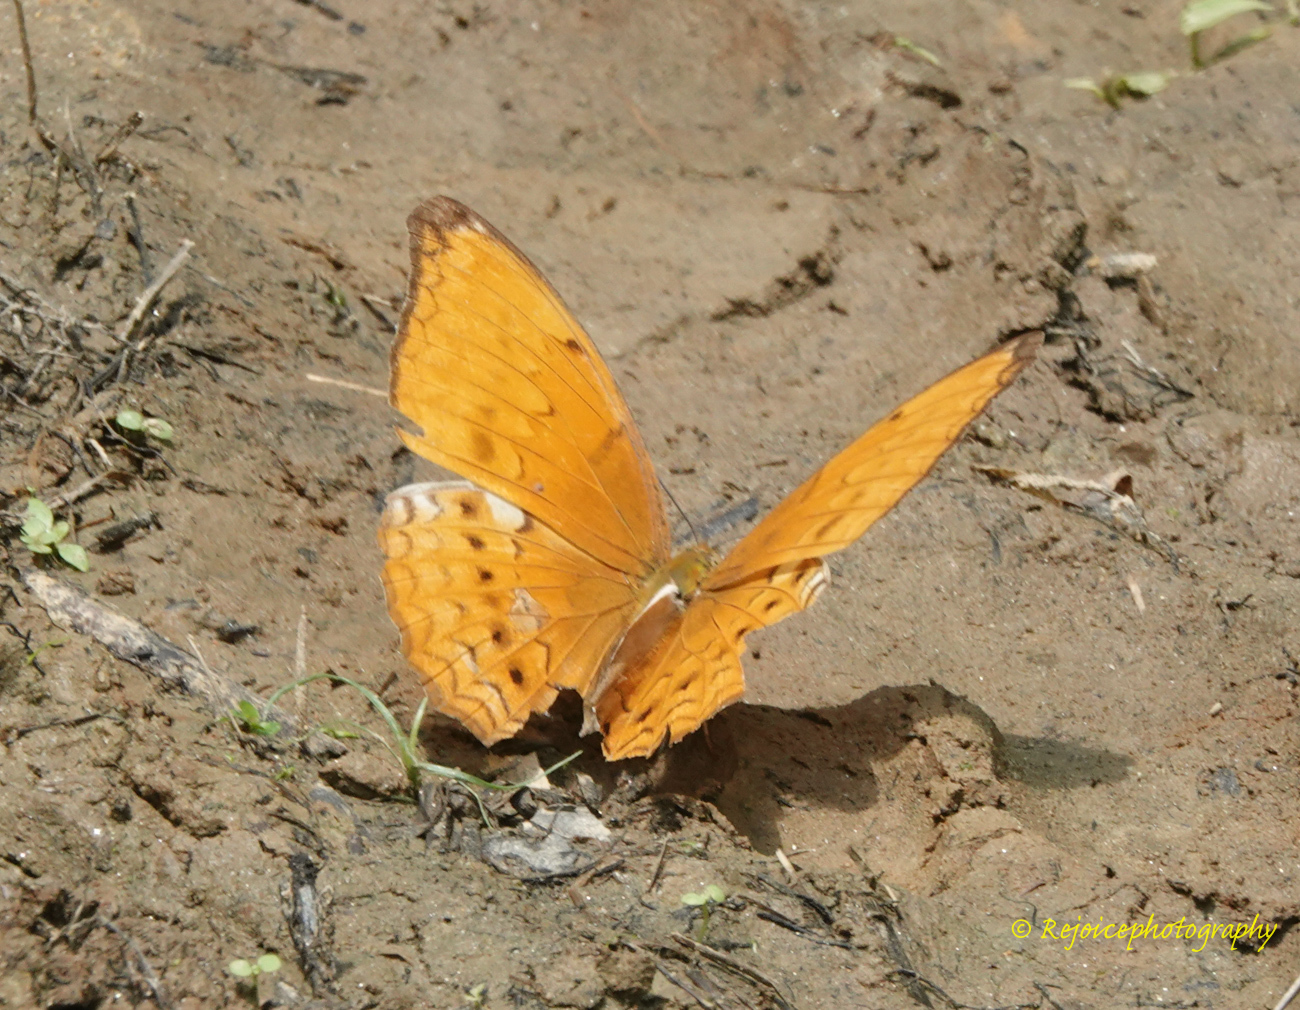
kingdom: Animalia
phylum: Arthropoda
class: Insecta
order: Lepidoptera
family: Nymphalidae
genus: Cirrochroa
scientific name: Cirrochroa aoris
